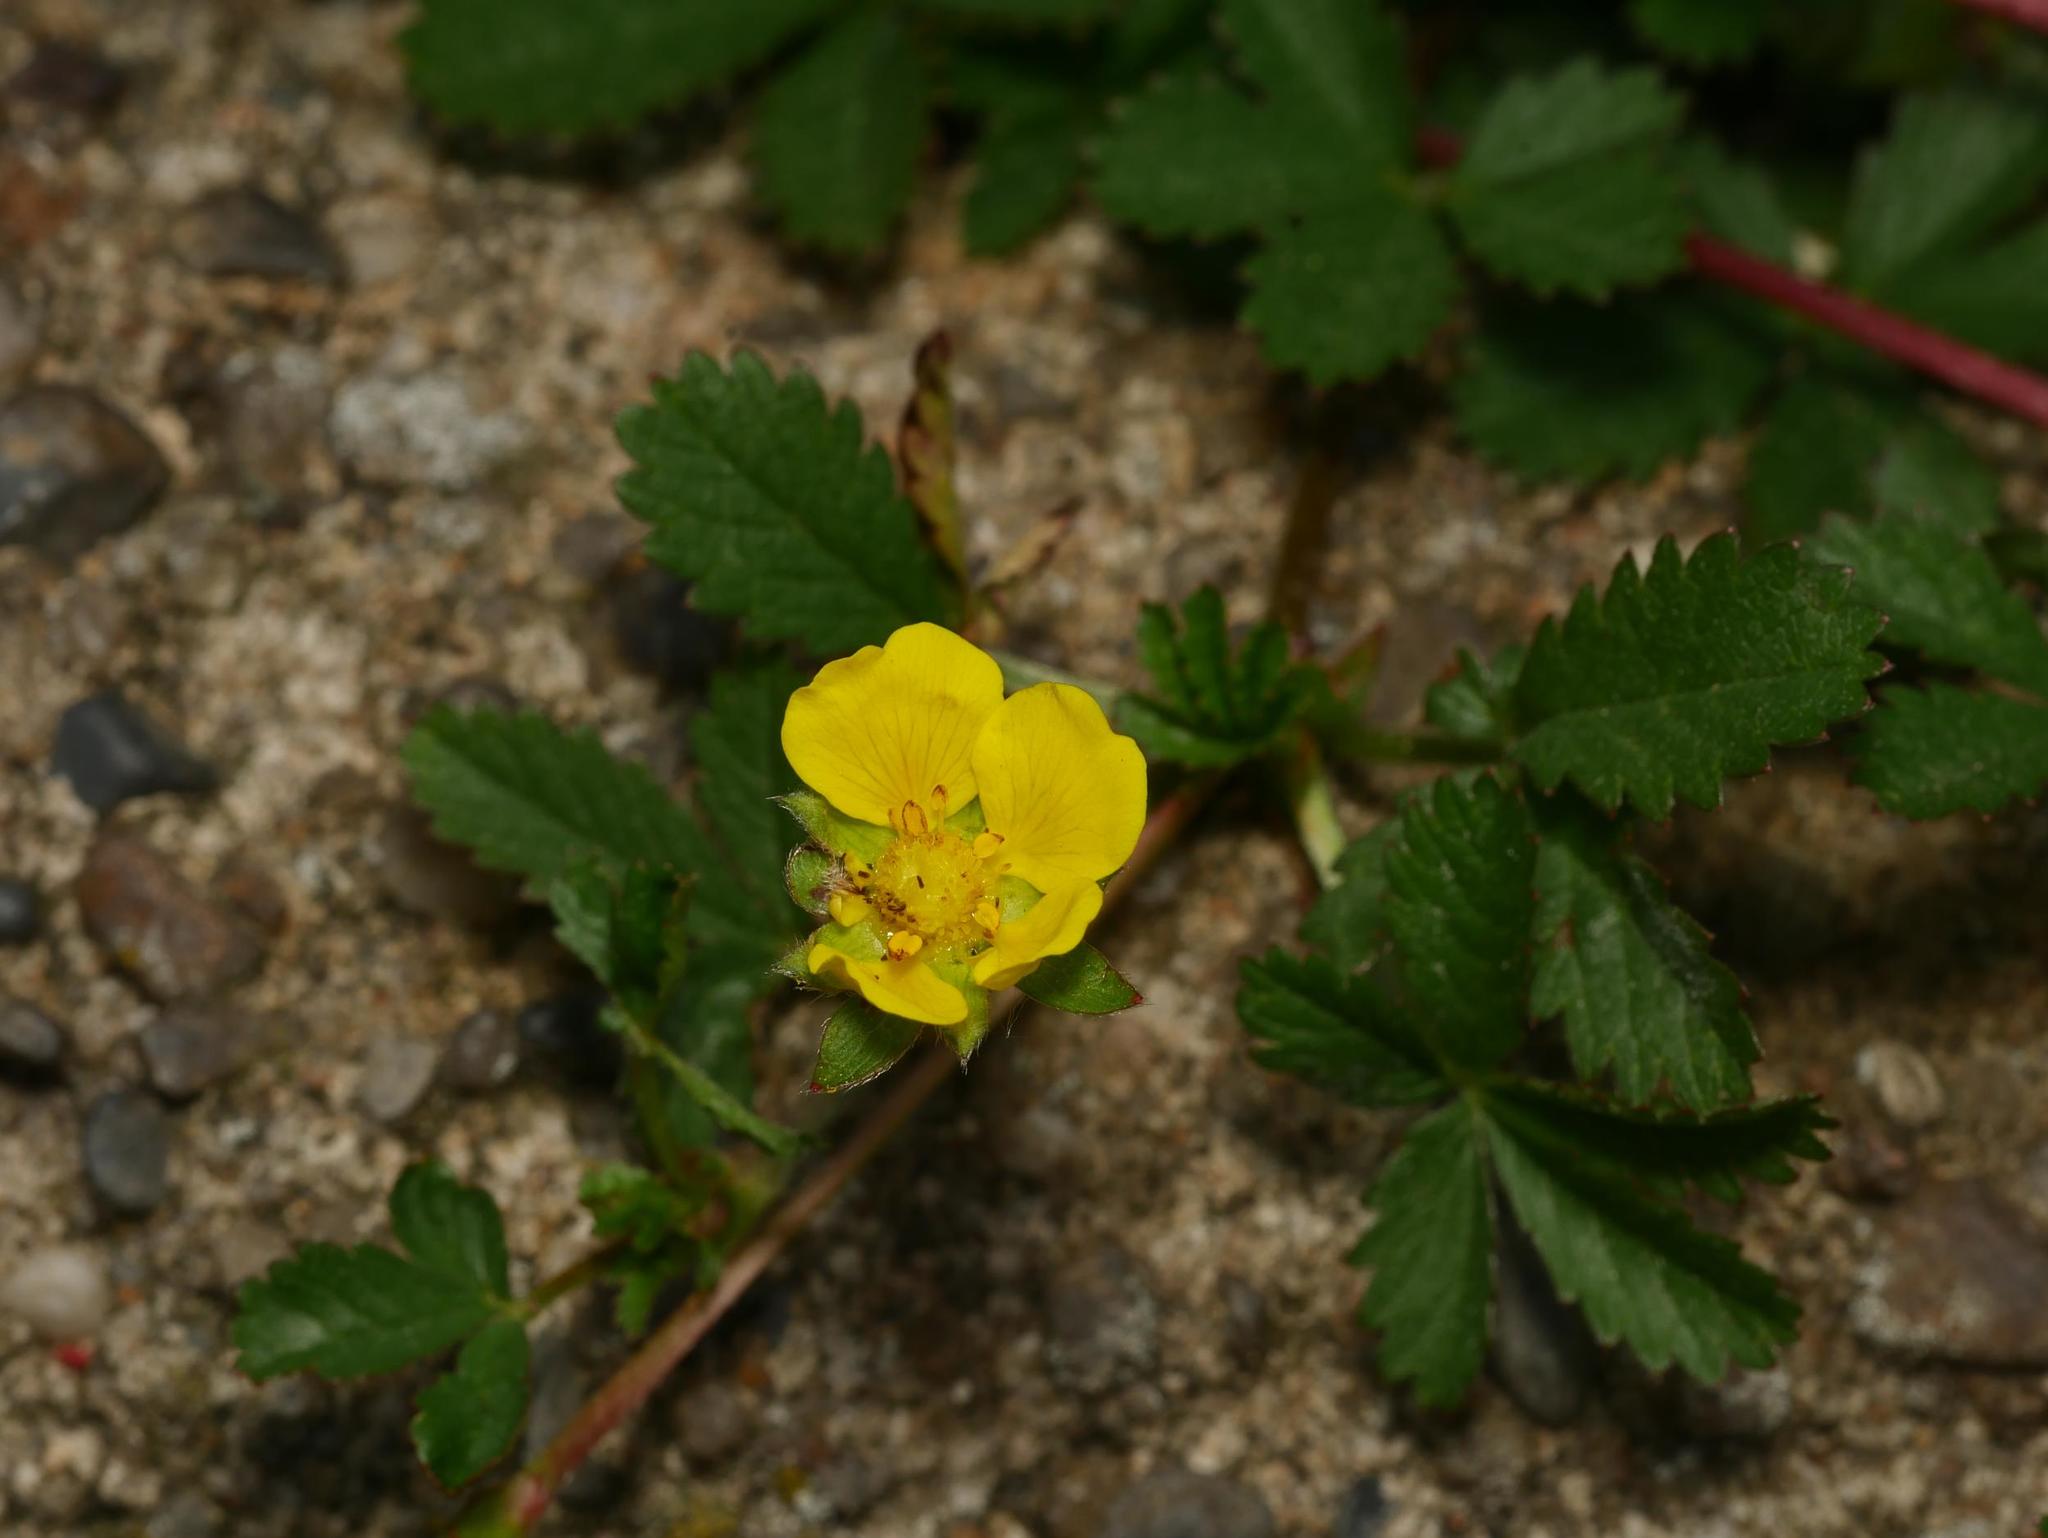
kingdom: Plantae
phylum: Tracheophyta
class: Magnoliopsida
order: Rosales
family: Rosaceae
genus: Potentilla
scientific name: Potentilla reptans
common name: Creeping cinquefoil
